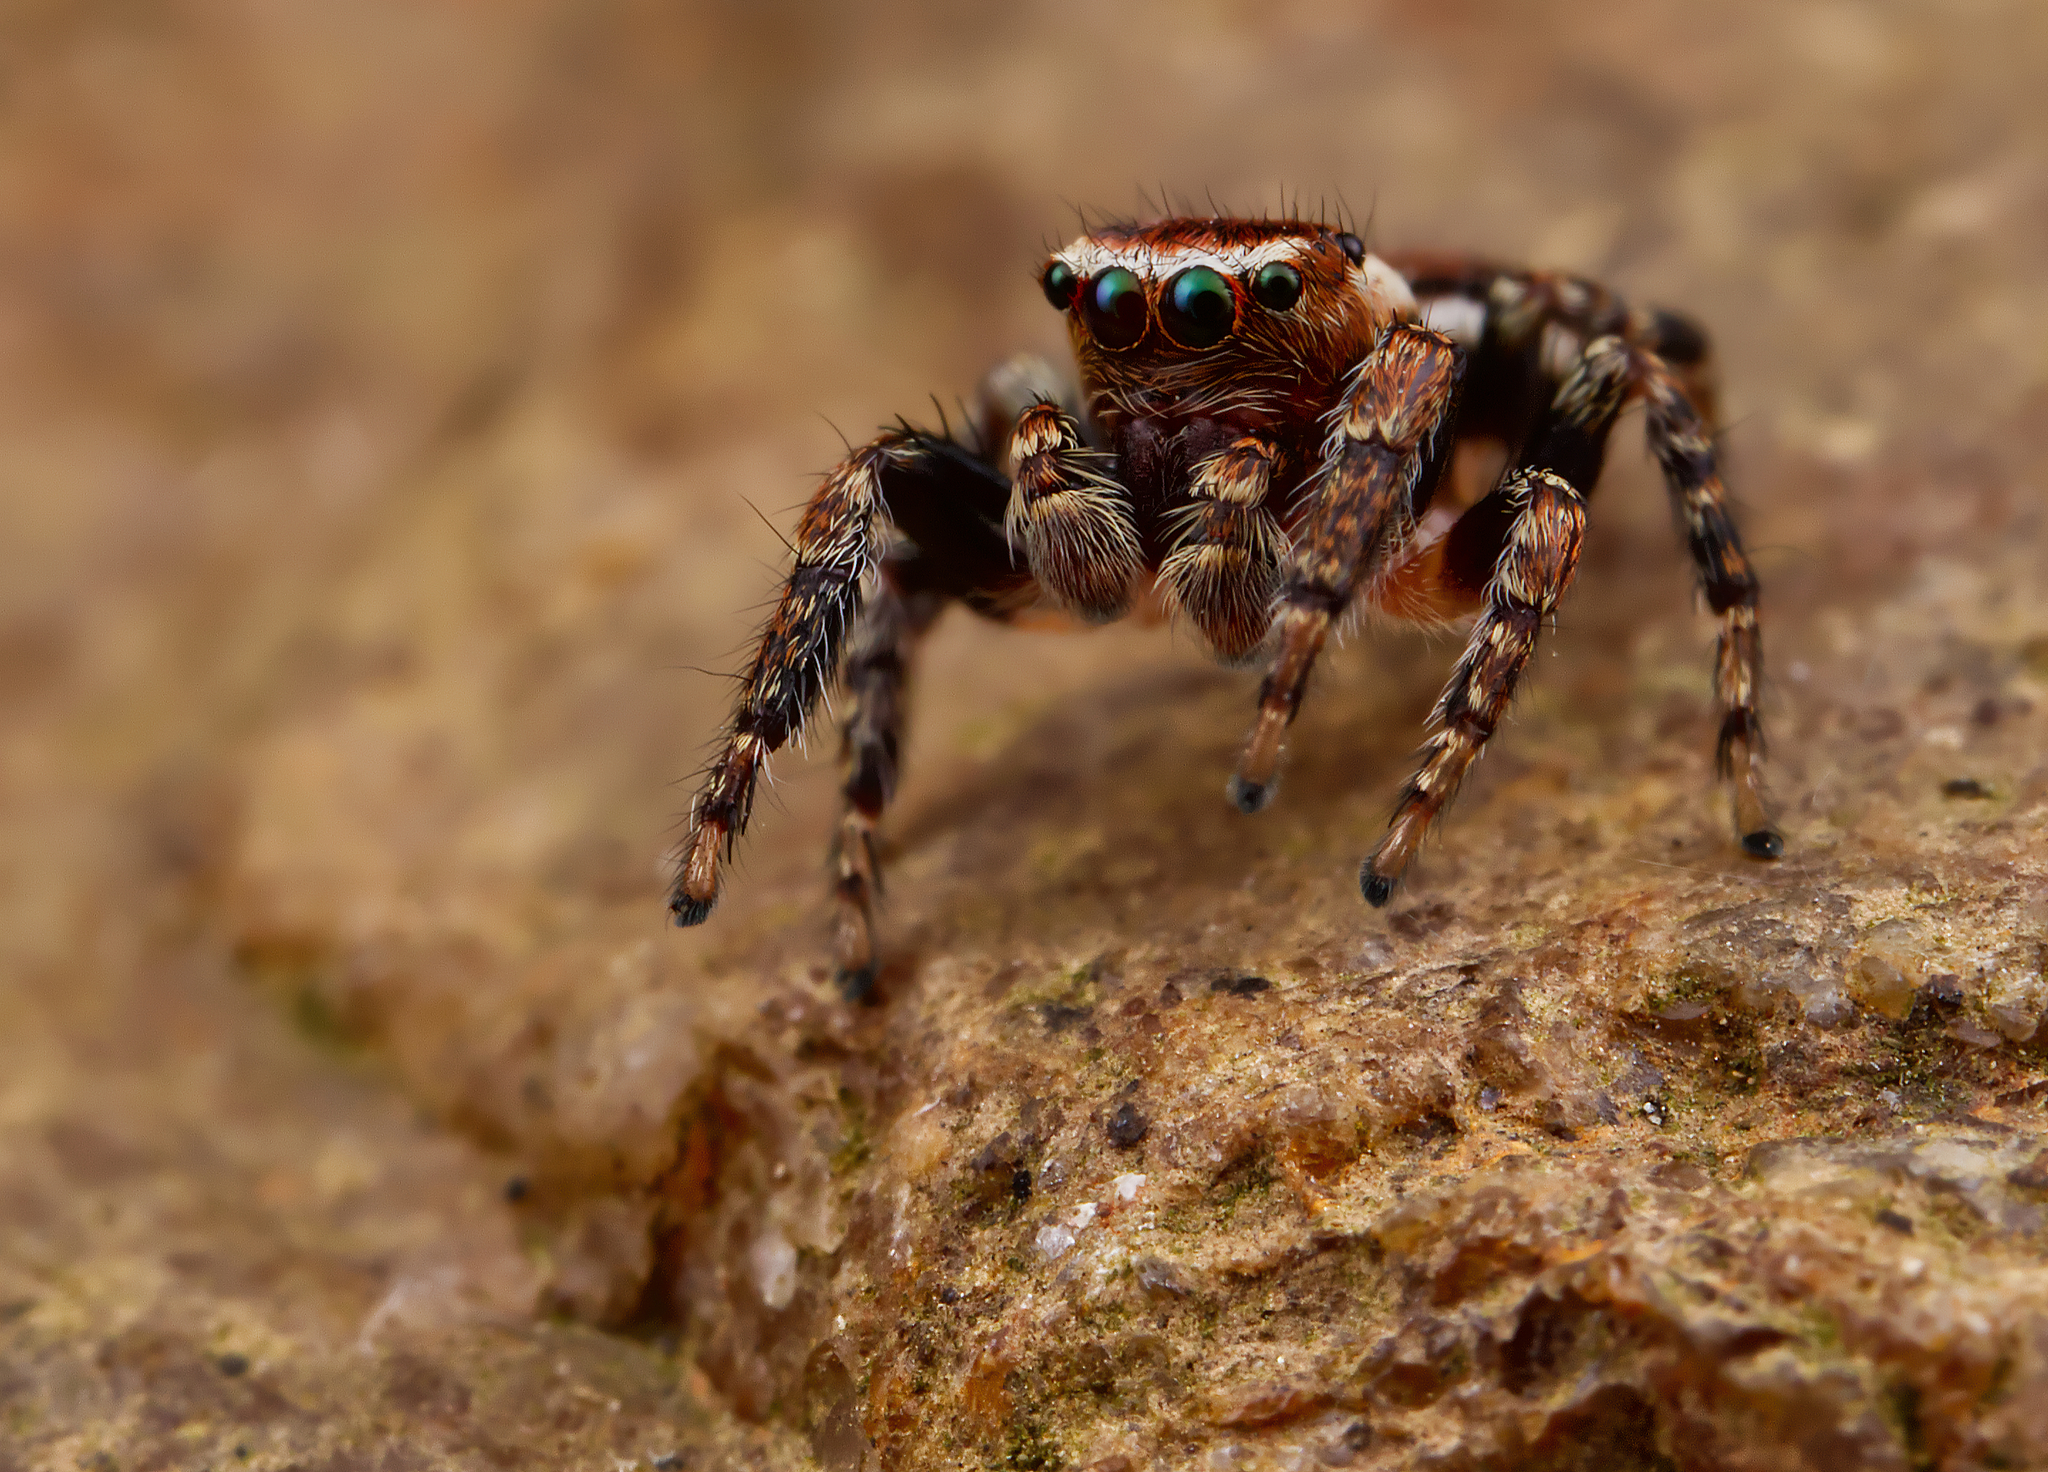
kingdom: Animalia
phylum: Arthropoda
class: Arachnida
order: Araneae
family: Salticidae
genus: Evarcha
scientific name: Evarcha hoyi
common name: Hoy's jumping spider
